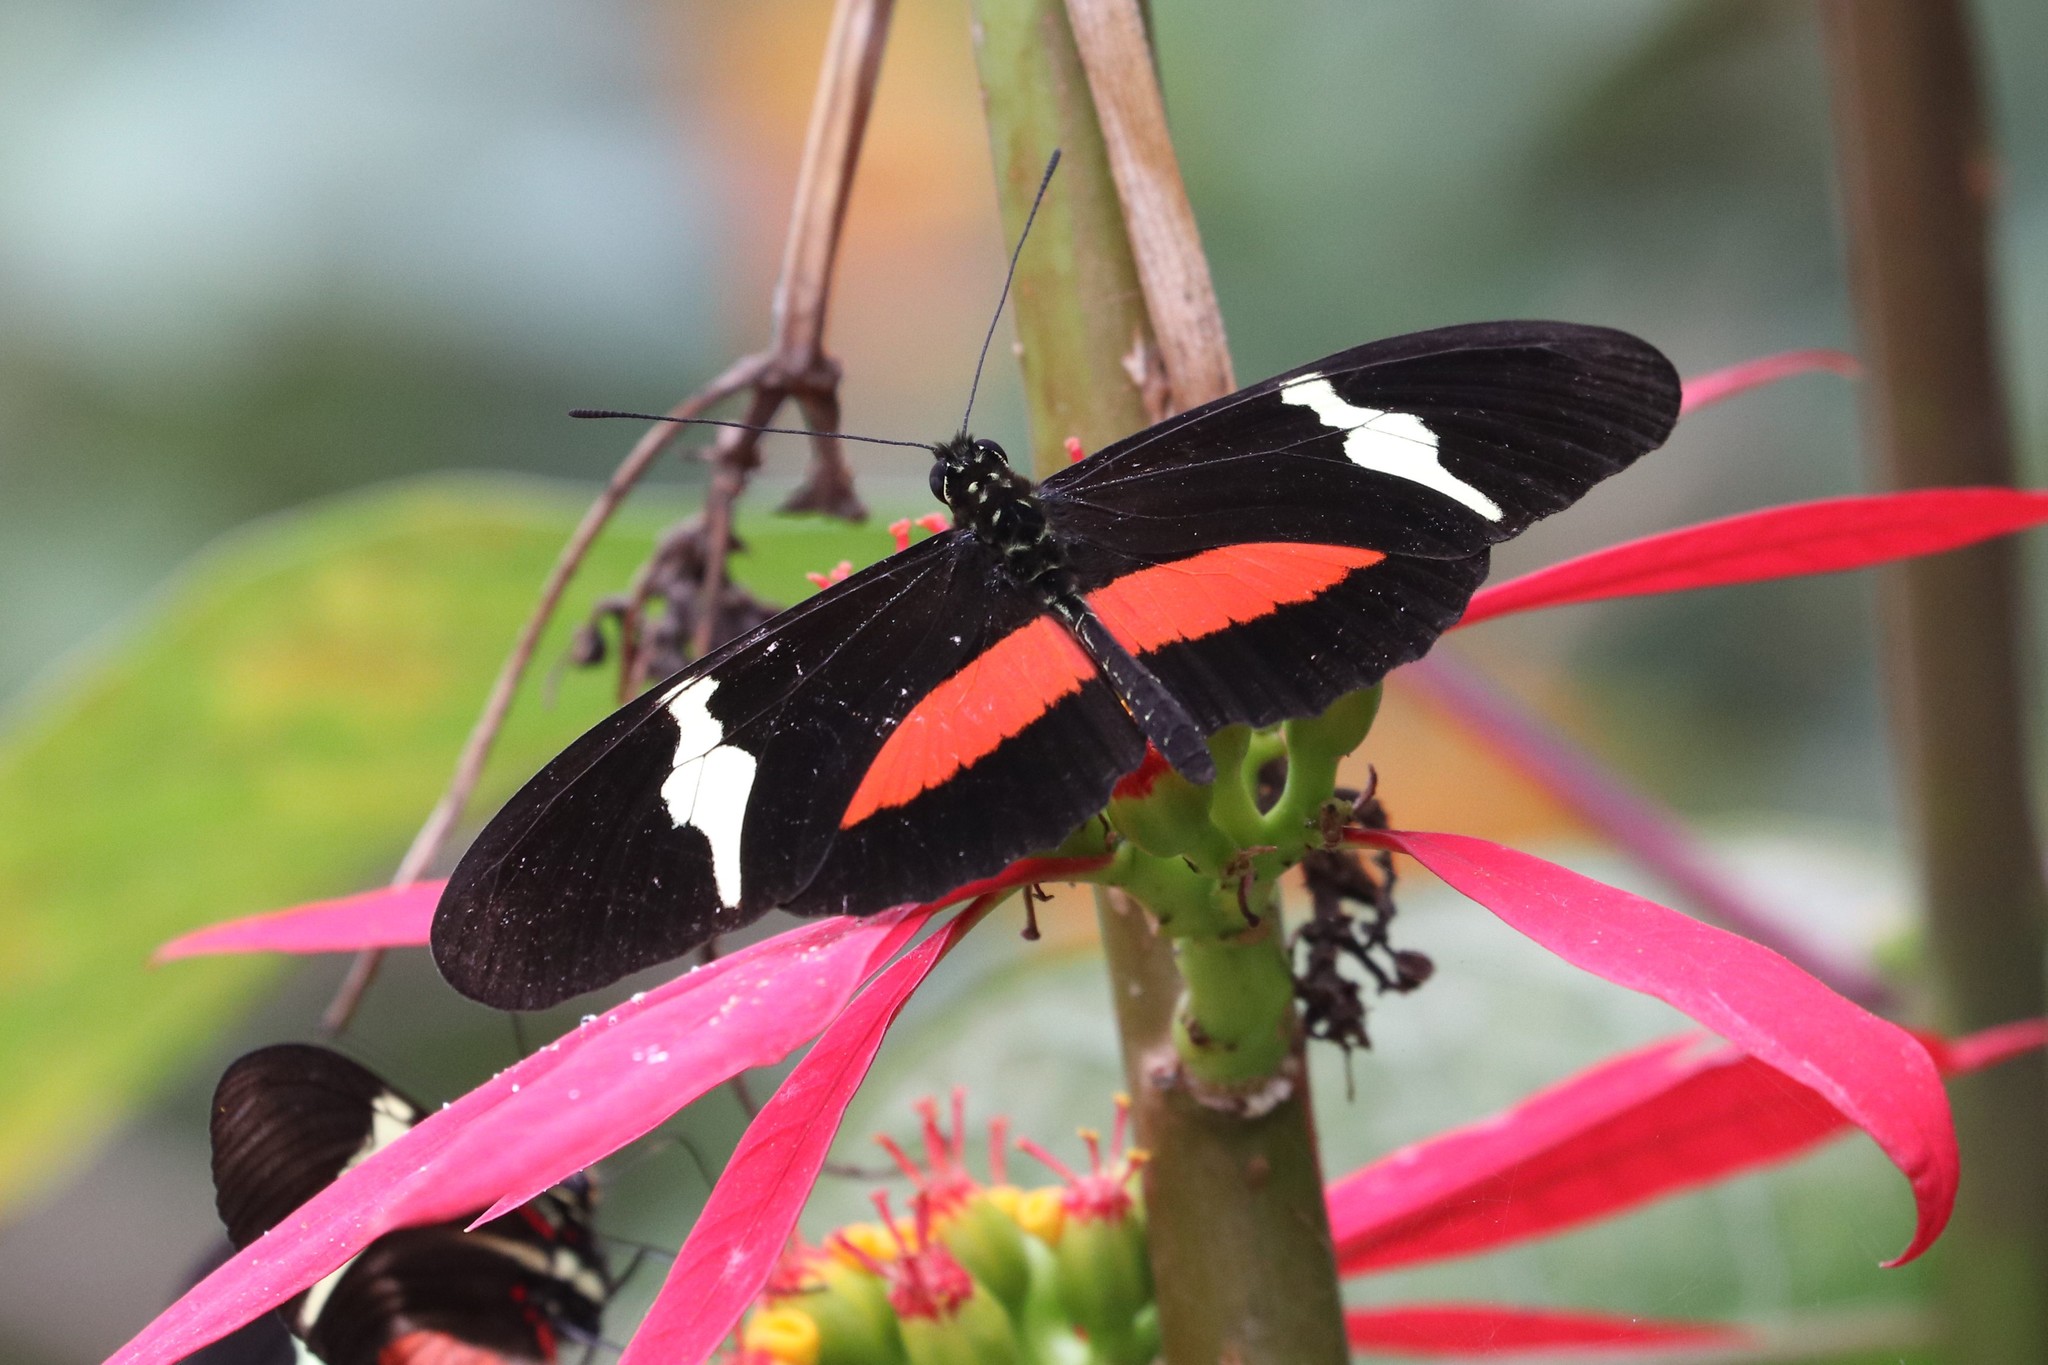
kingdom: Animalia
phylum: Arthropoda
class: Insecta
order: Lepidoptera
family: Nymphalidae
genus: Heliconius
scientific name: Heliconius clysonymus
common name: Clysonymus longwing
